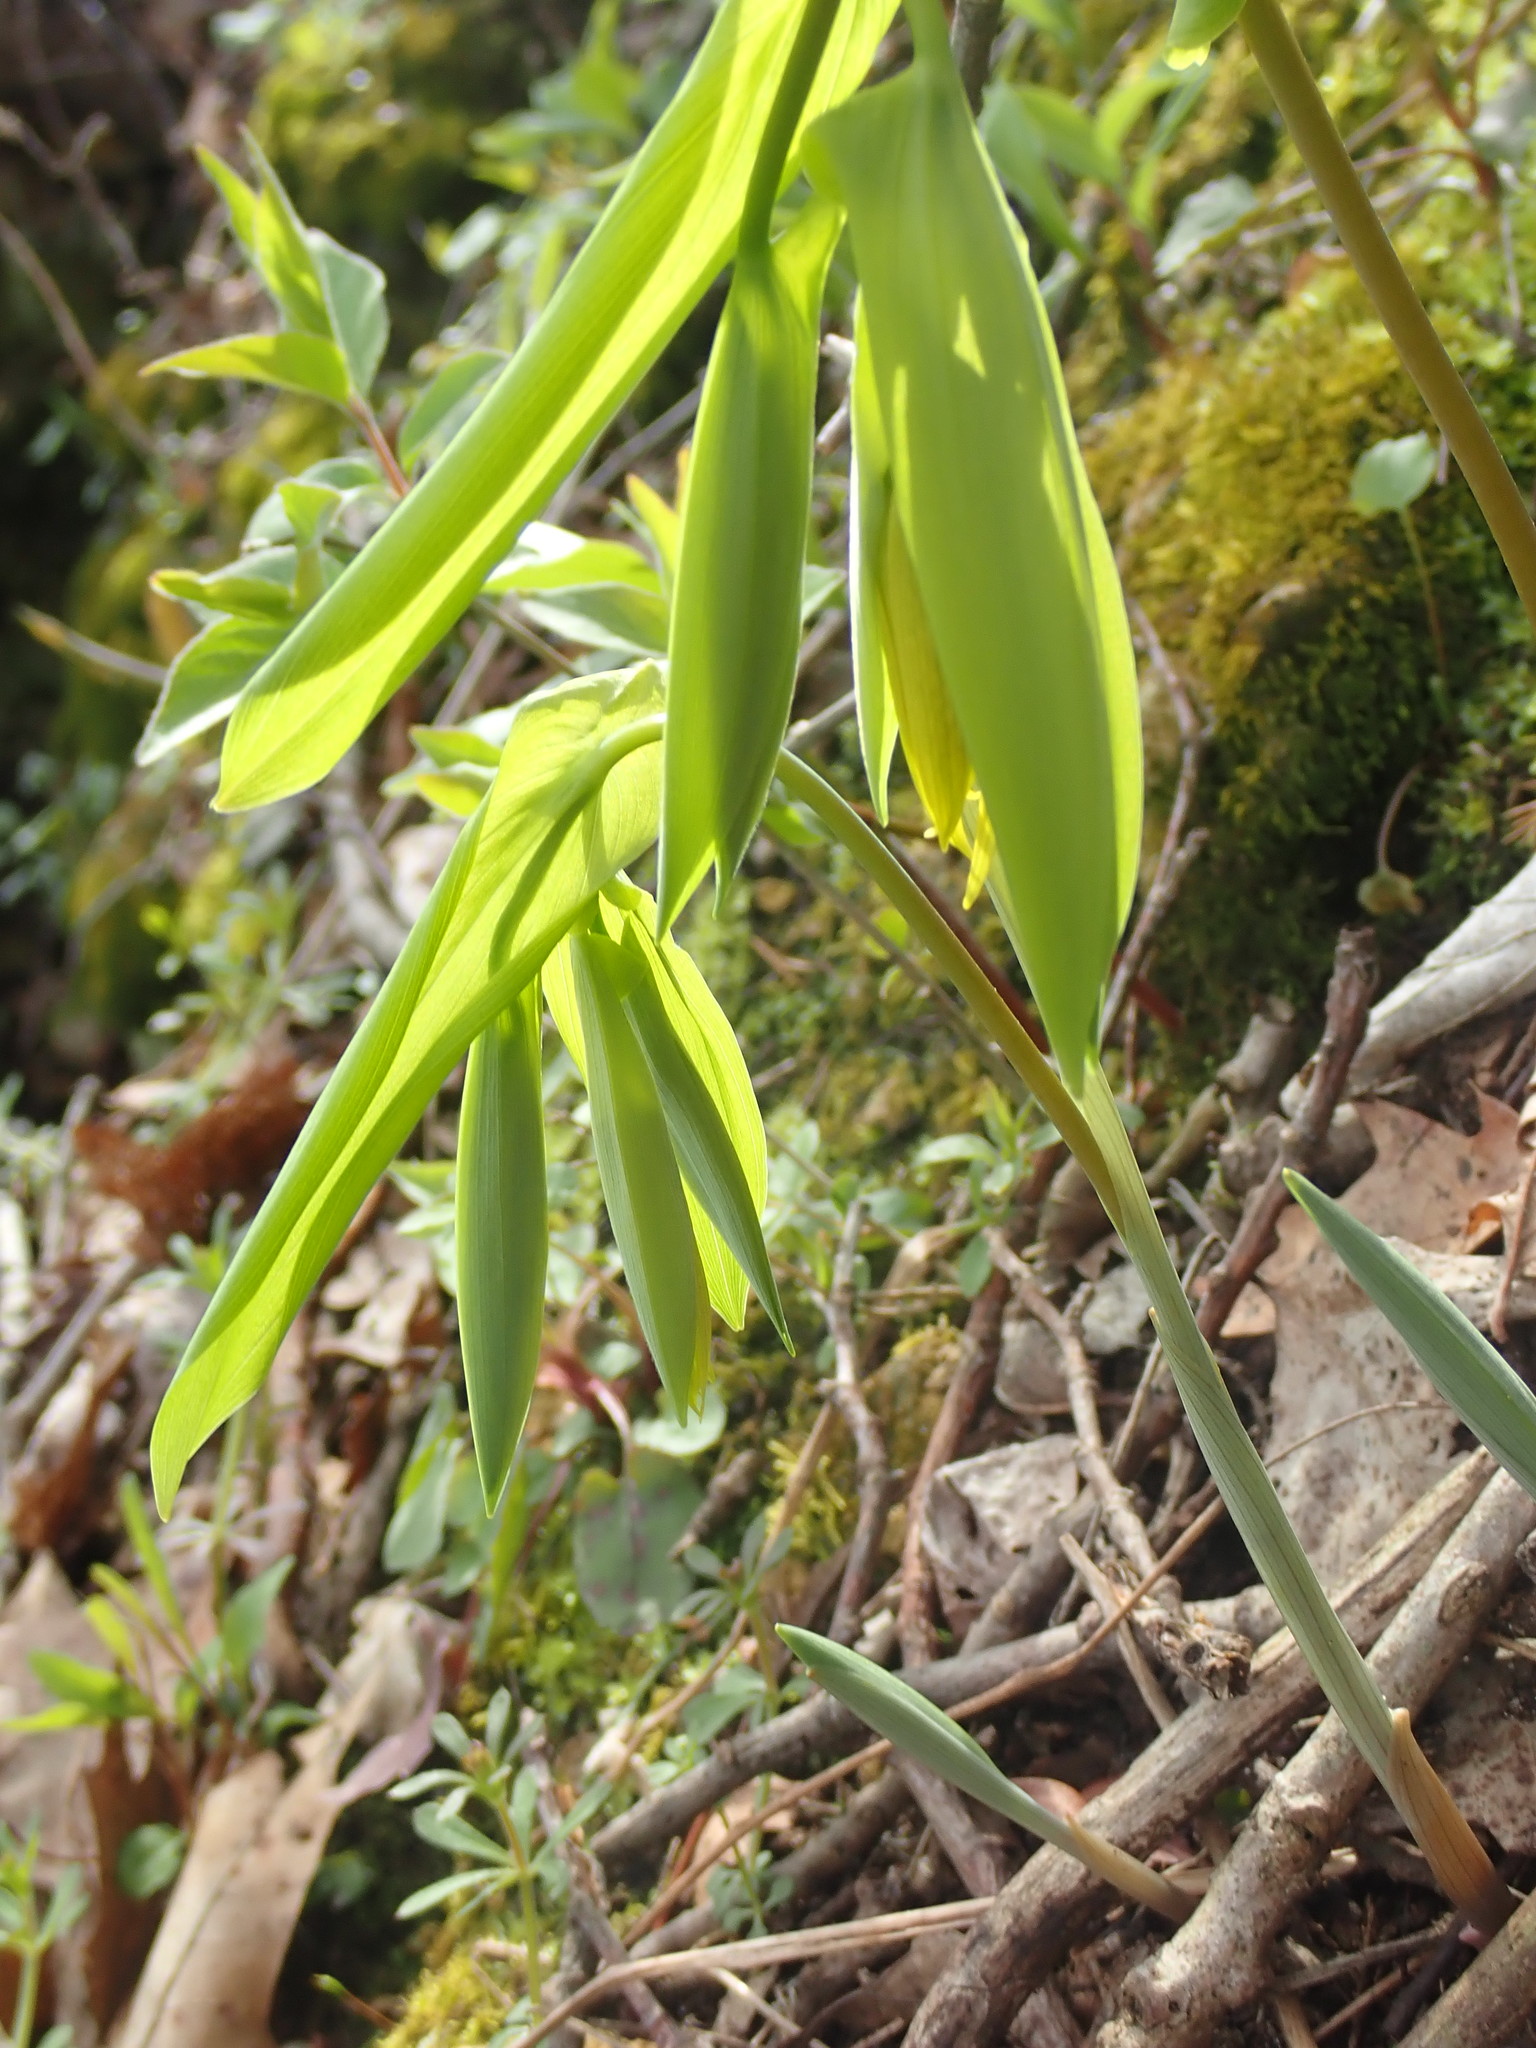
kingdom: Plantae
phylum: Tracheophyta
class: Liliopsida
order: Liliales
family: Colchicaceae
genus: Uvularia
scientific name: Uvularia grandiflora
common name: Bellwort
